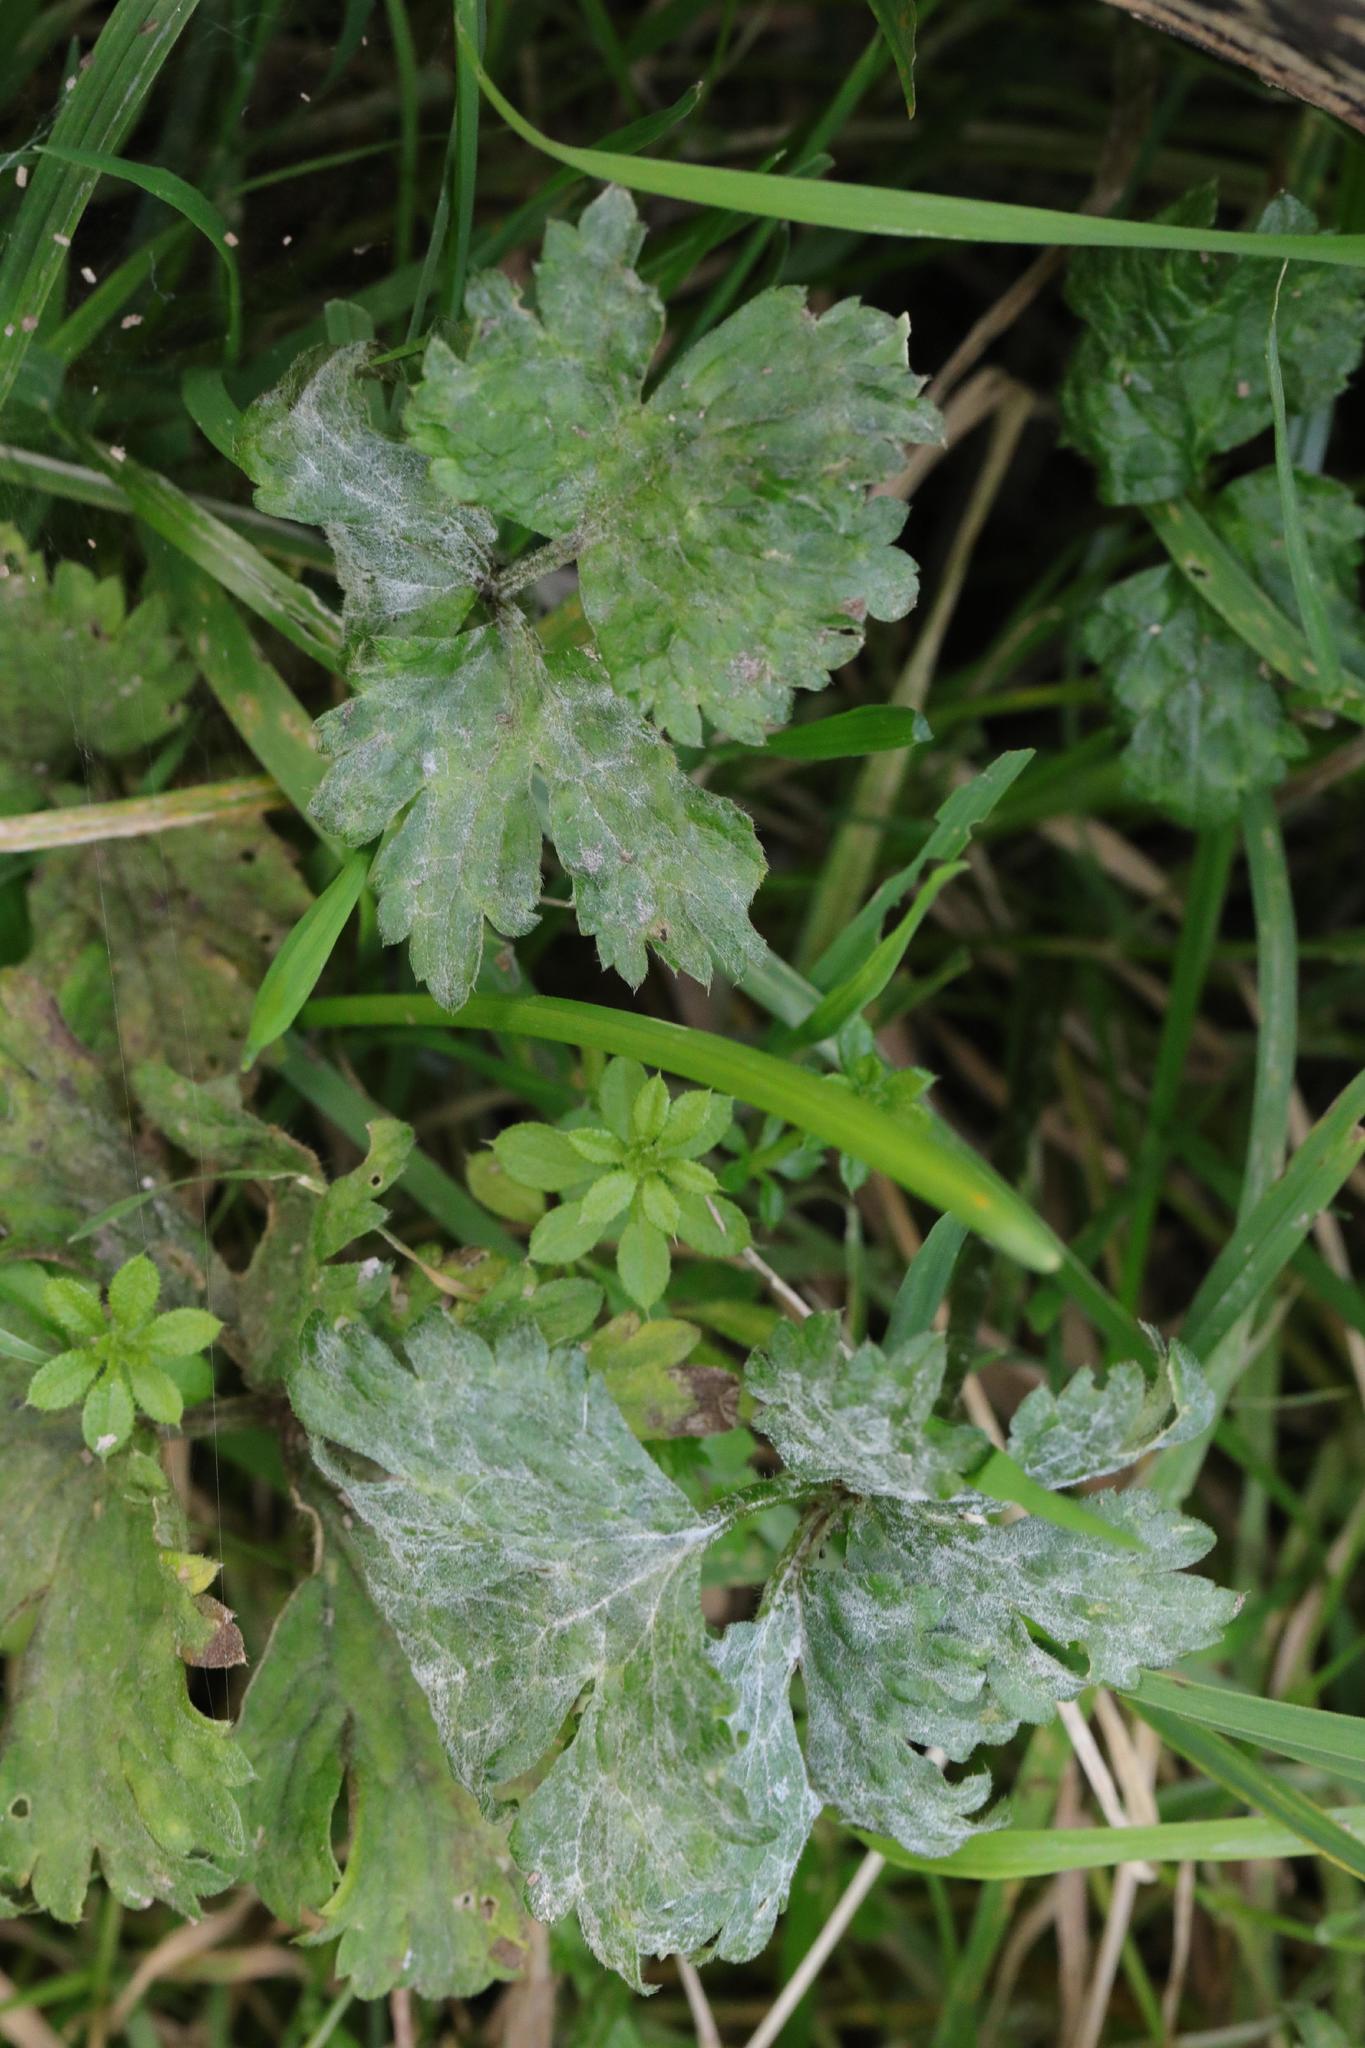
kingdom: Fungi
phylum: Ascomycota
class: Leotiomycetes
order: Helotiales
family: Erysiphaceae
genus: Erysiphe
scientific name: Erysiphe aquilegiae
